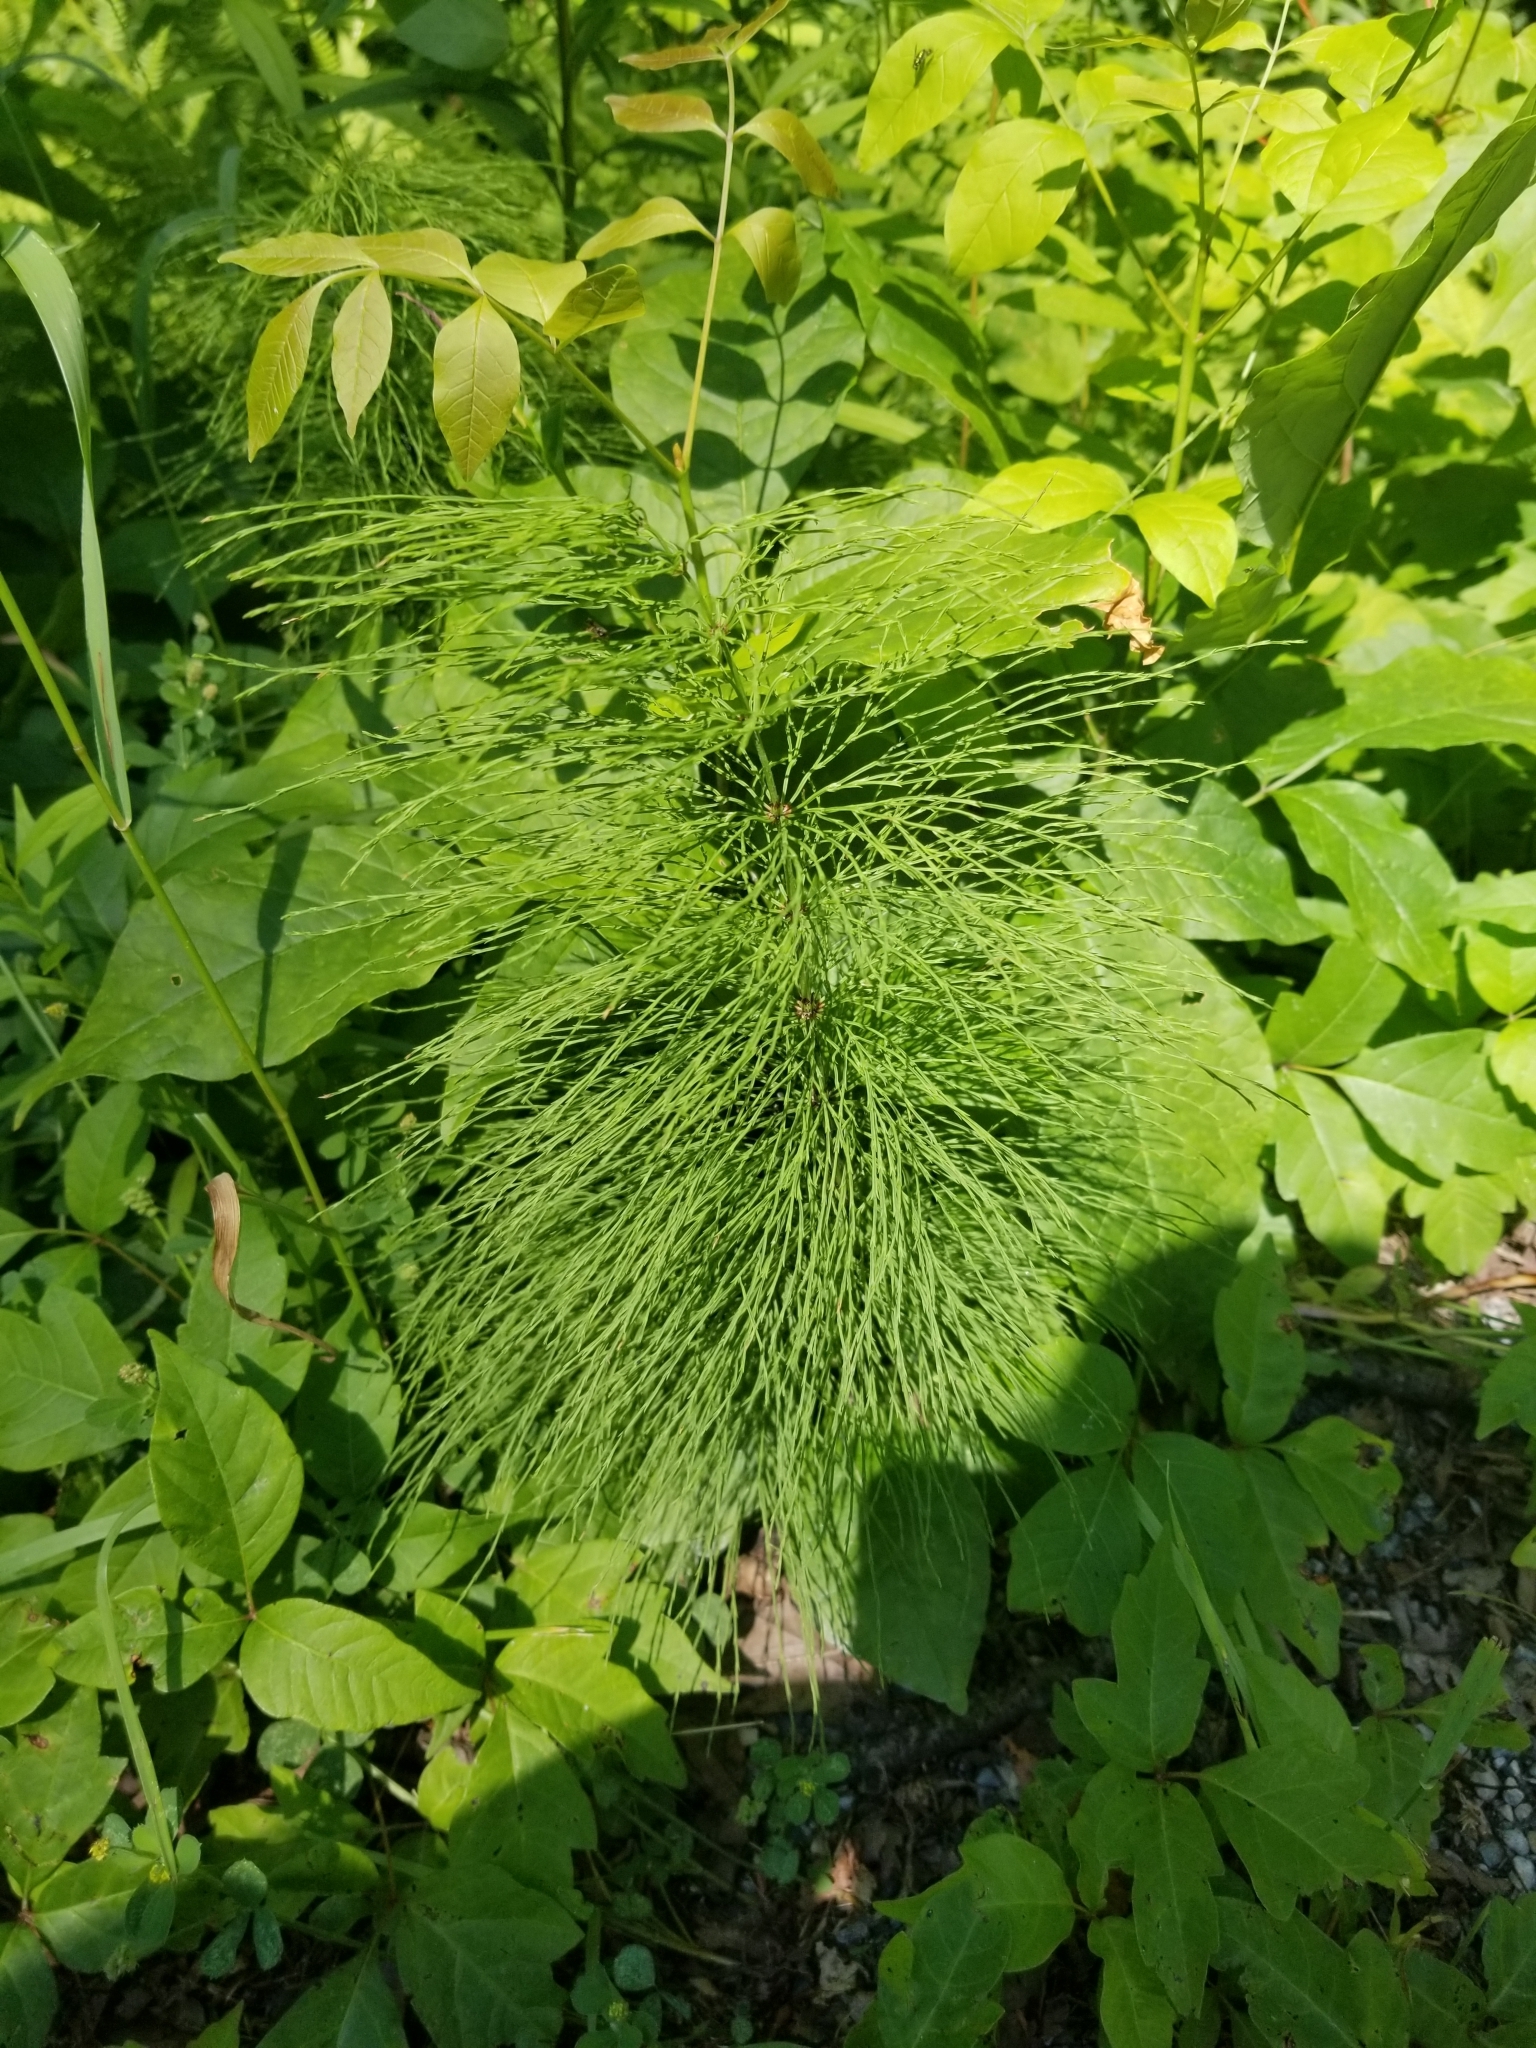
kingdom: Plantae
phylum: Tracheophyta
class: Polypodiopsida
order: Equisetales
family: Equisetaceae
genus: Equisetum
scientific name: Equisetum sylvaticum
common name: Wood horsetail
